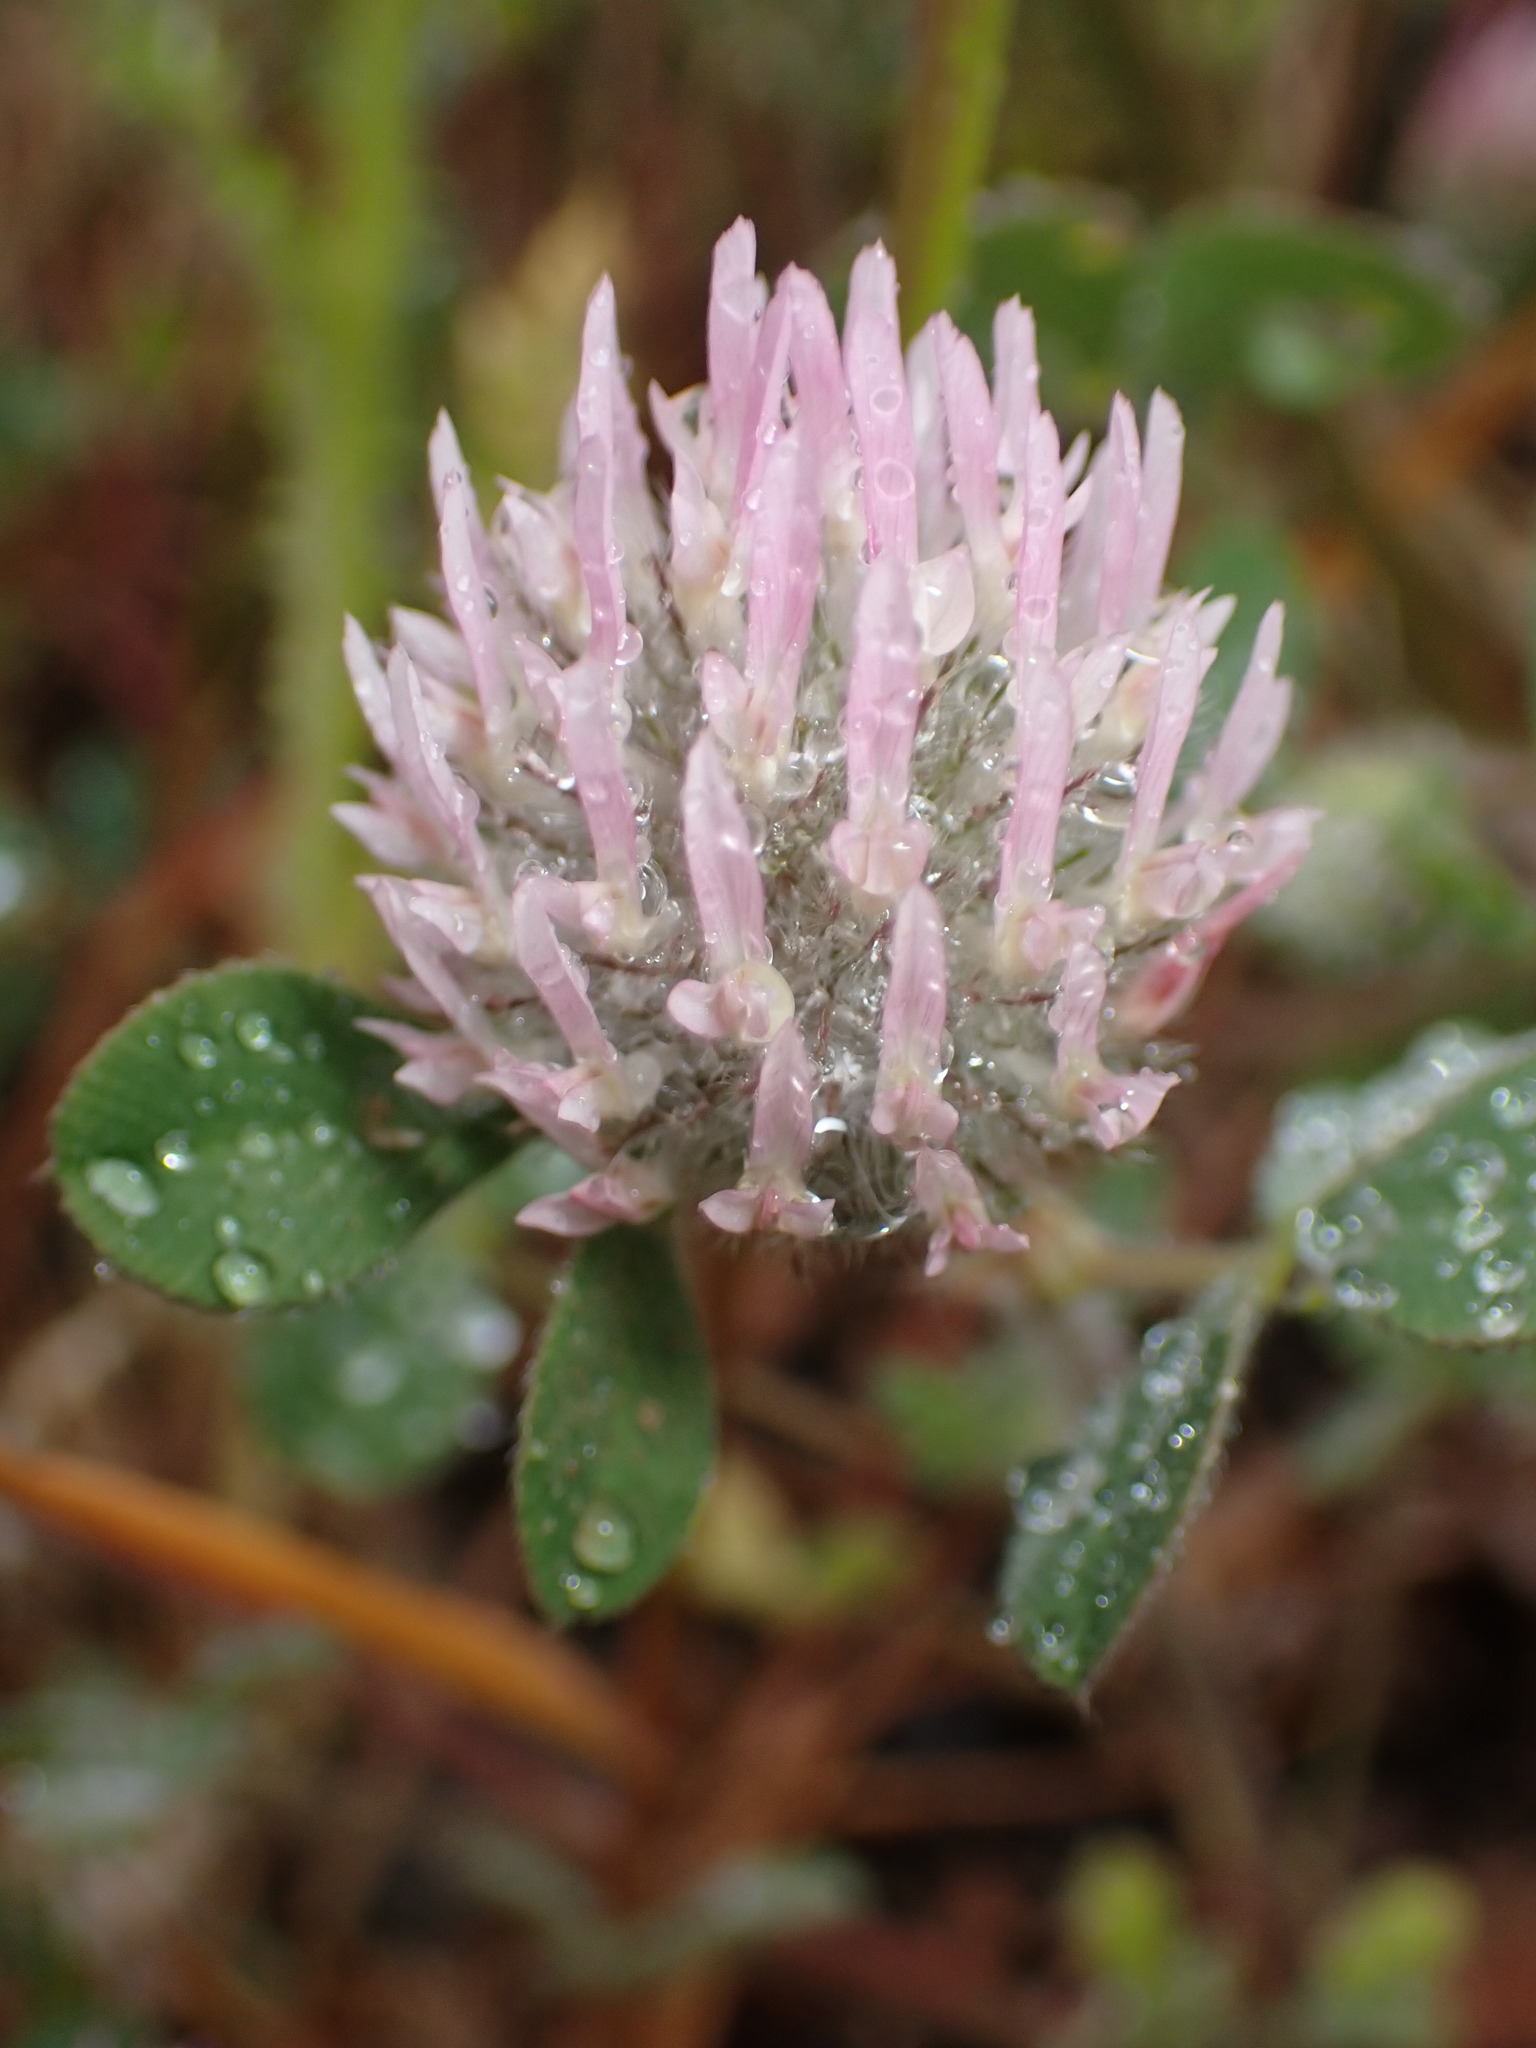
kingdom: Plantae
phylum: Tracheophyta
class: Magnoliopsida
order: Fabales
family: Fabaceae
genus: Trifolium
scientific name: Trifolium hirtum
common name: Rose clover
